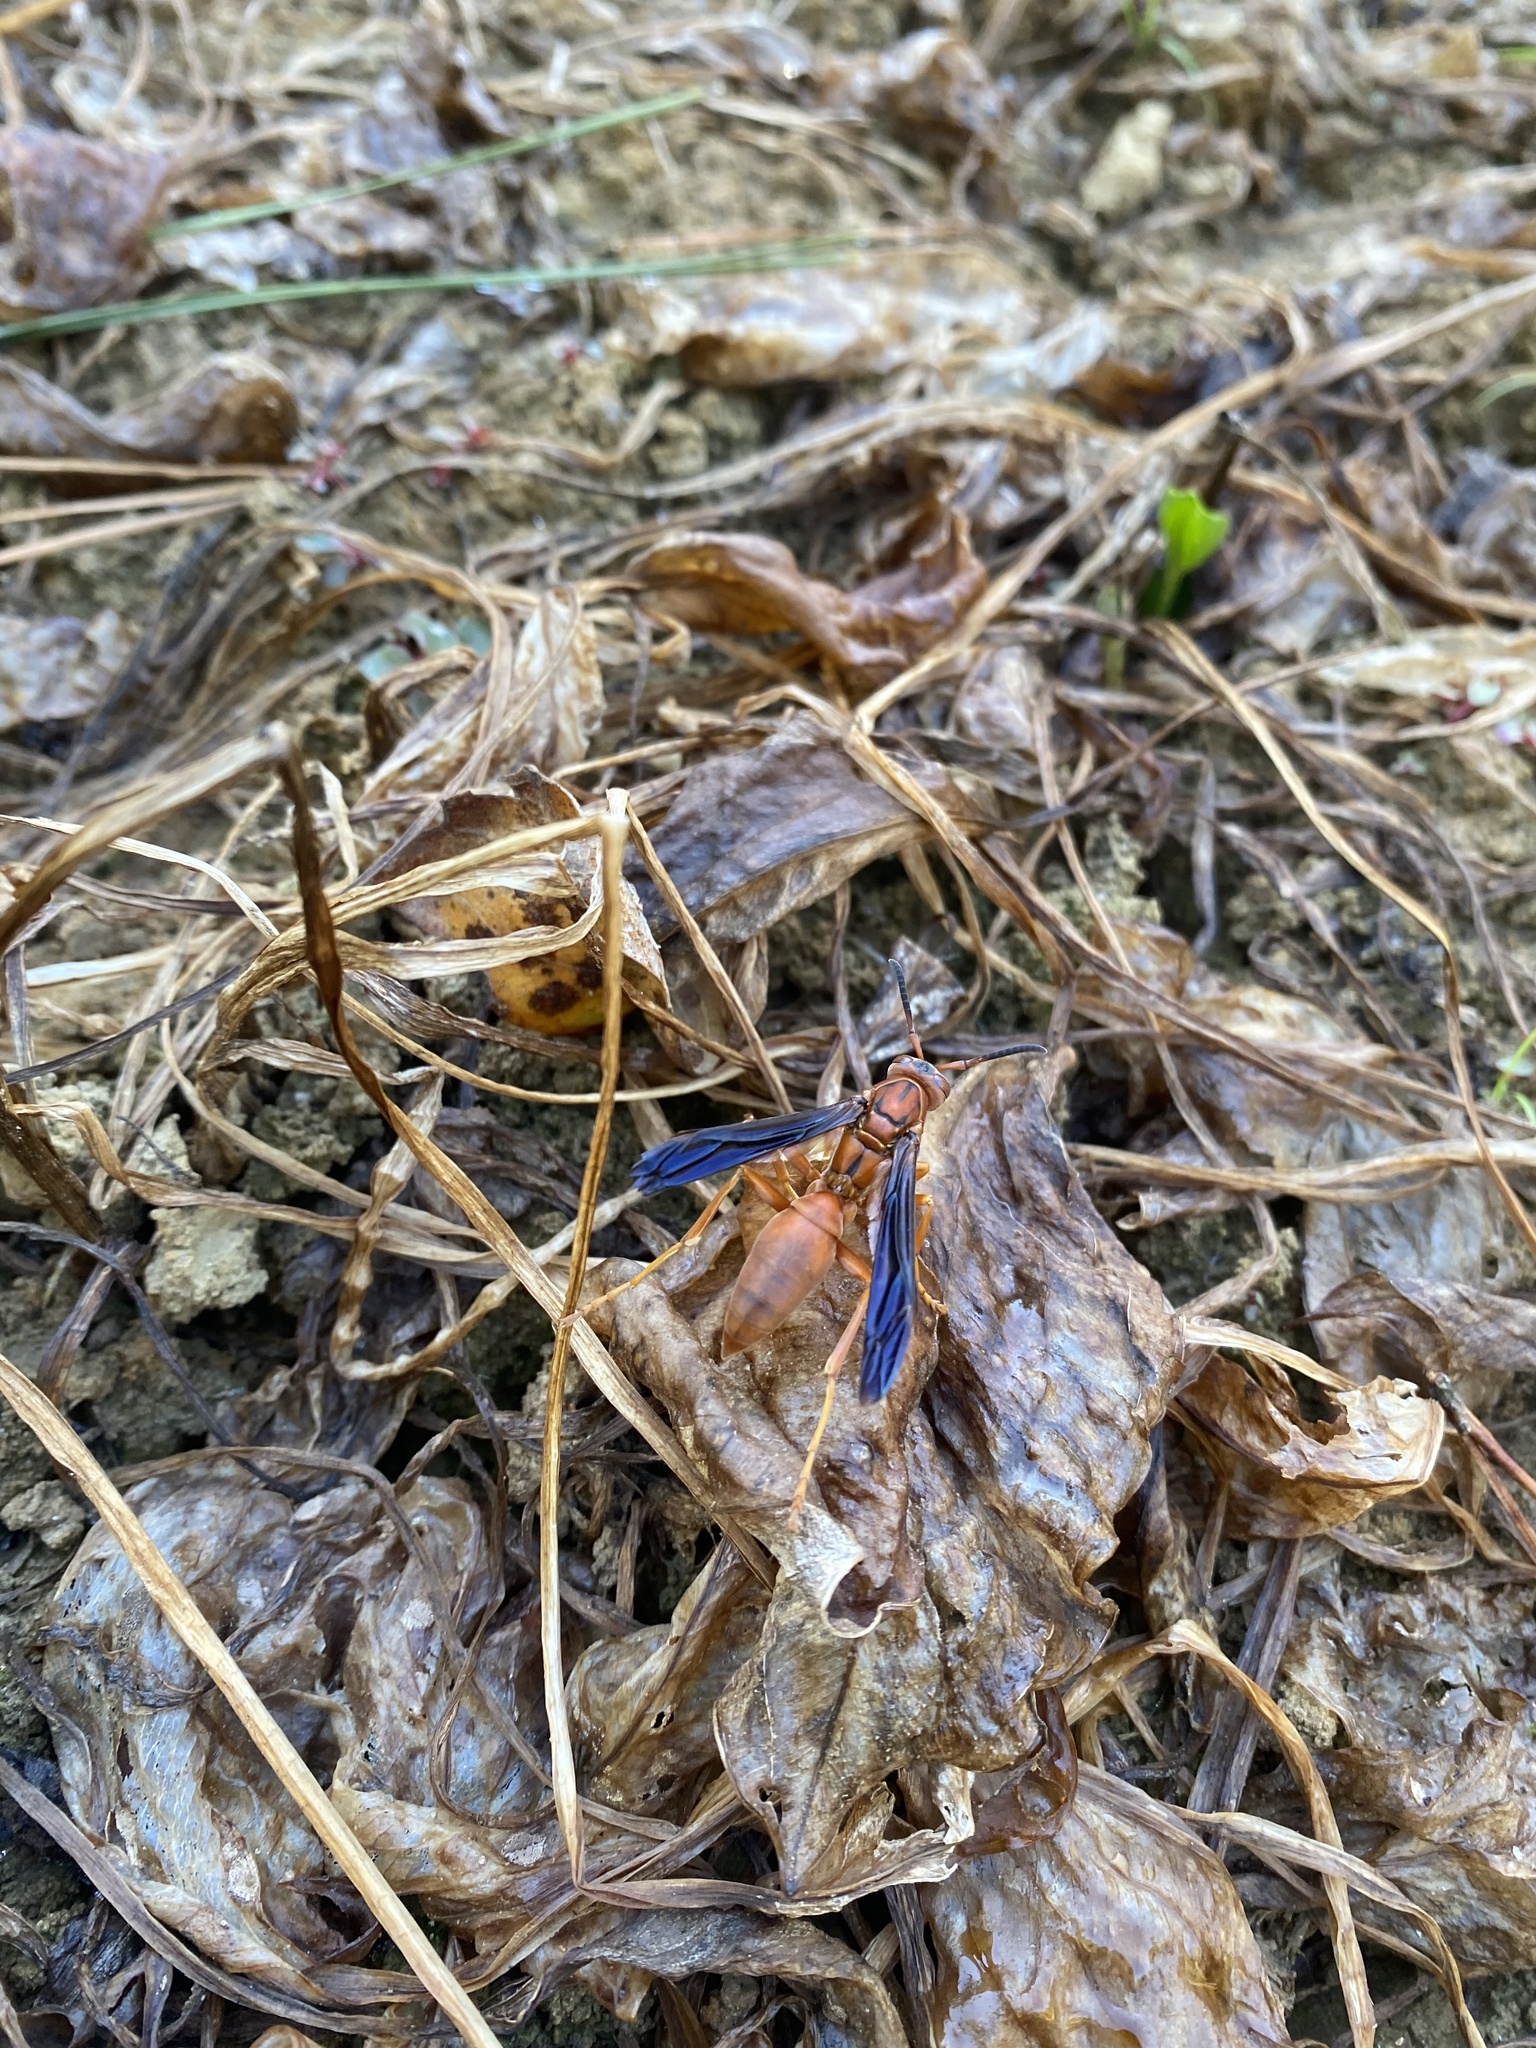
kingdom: Animalia
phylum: Arthropoda
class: Insecta
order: Hymenoptera
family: Eumenidae
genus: Polistes
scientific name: Polistes carolina
